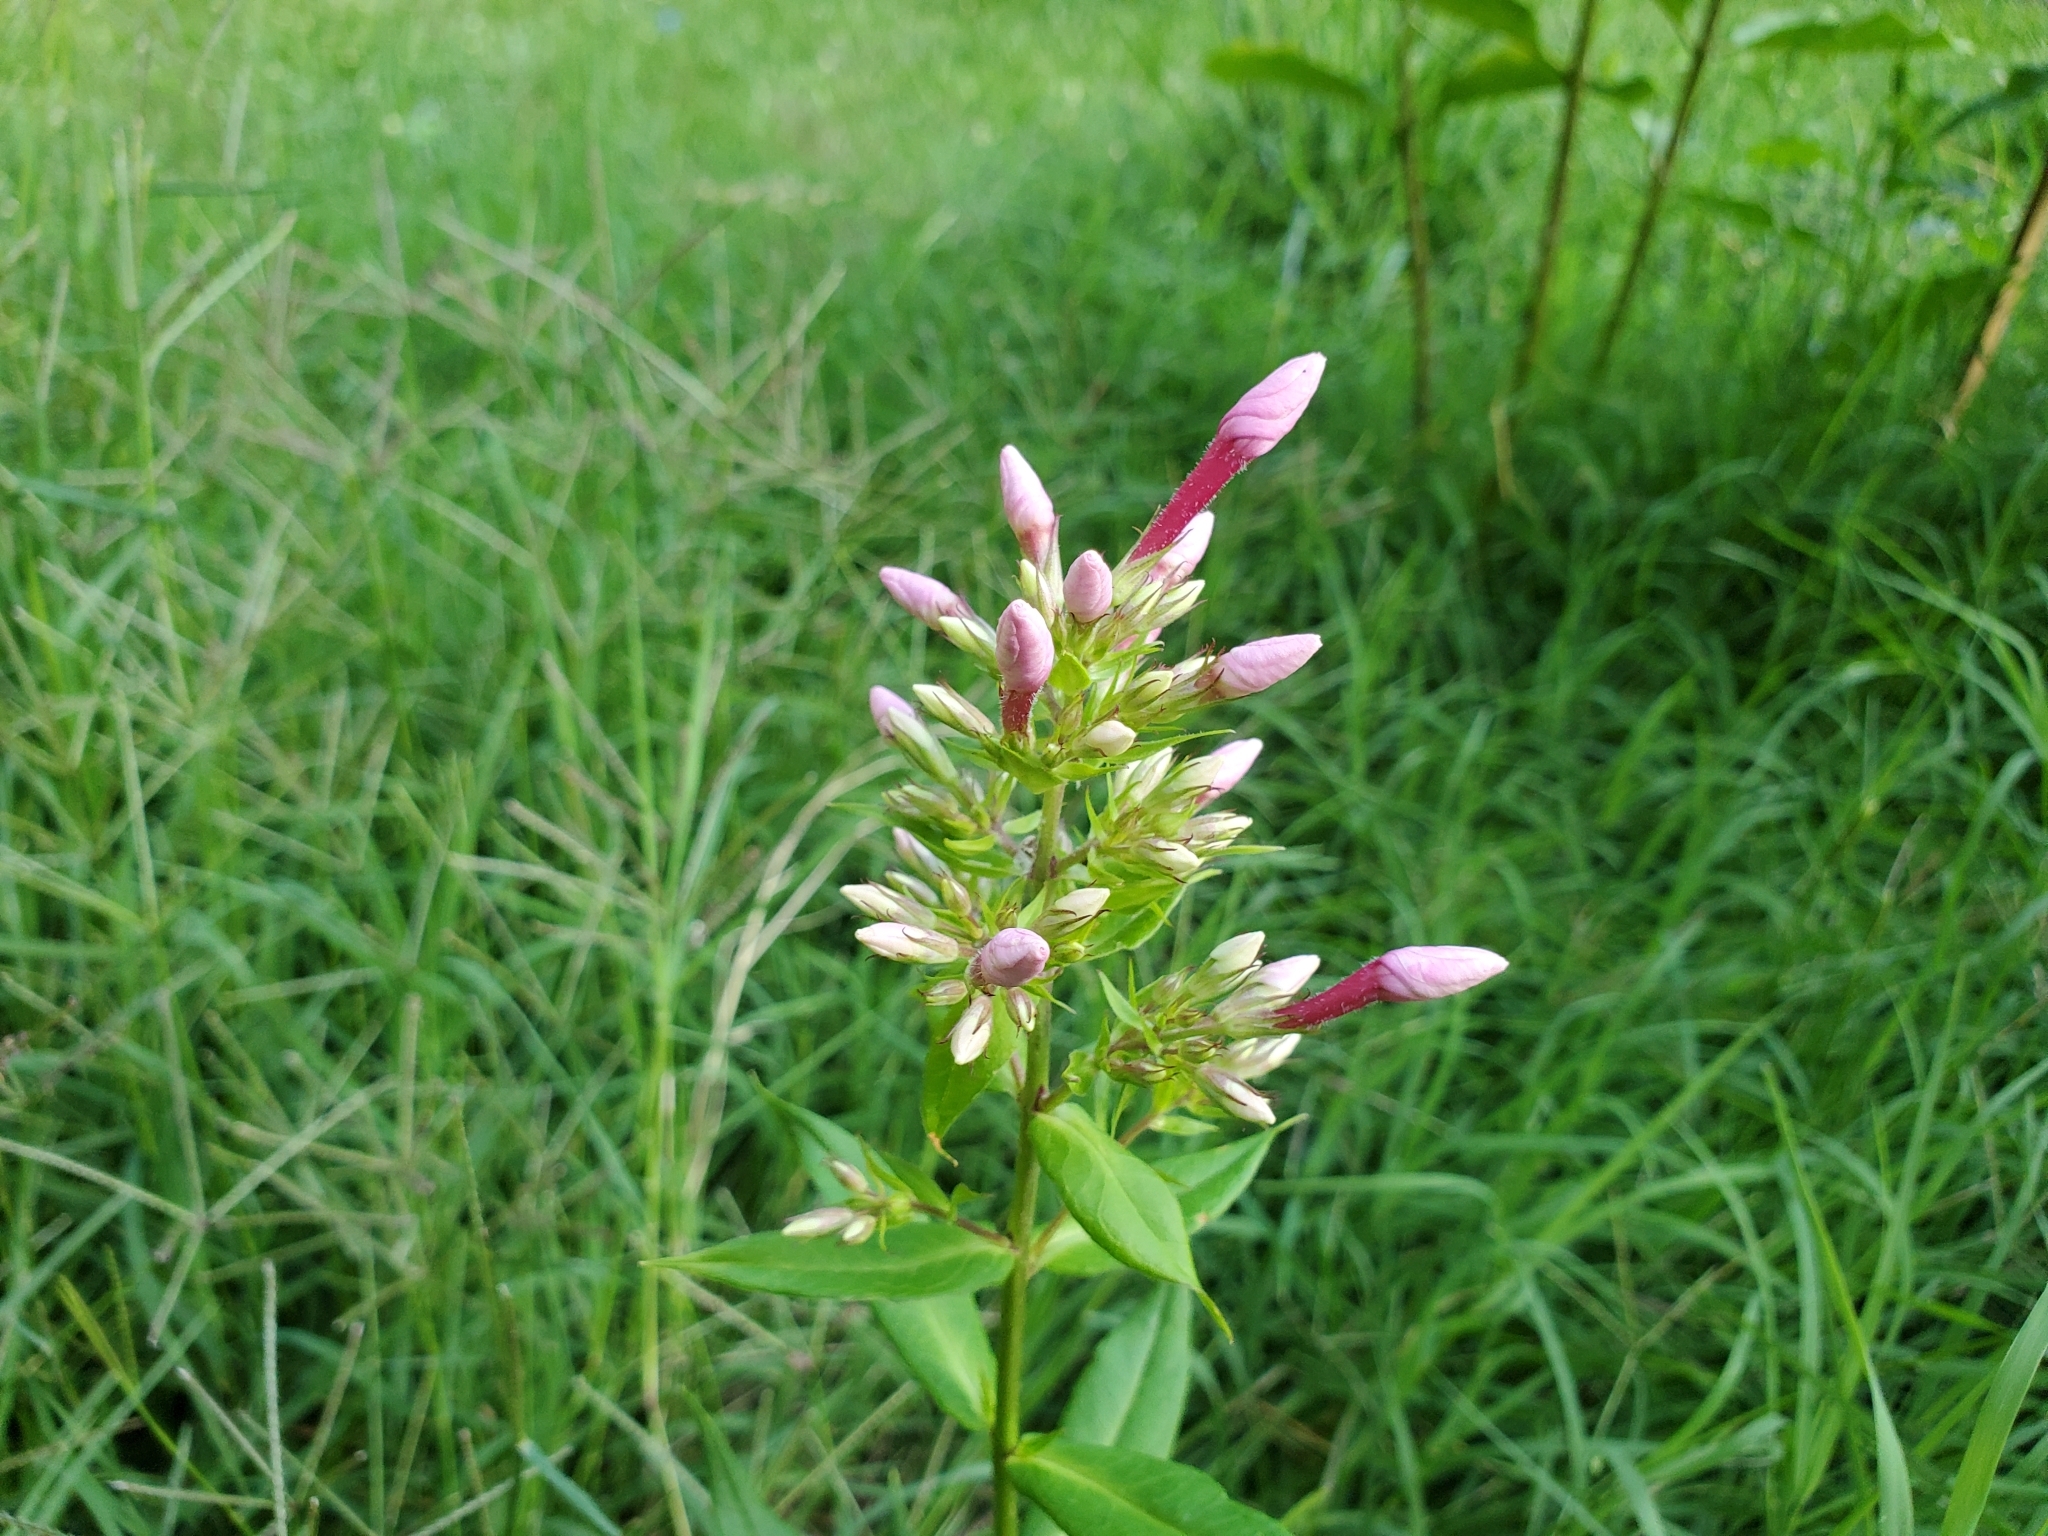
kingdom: Plantae
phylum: Tracheophyta
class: Magnoliopsida
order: Ericales
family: Polemoniaceae
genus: Phlox
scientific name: Phlox paniculata
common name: Fall phlox
